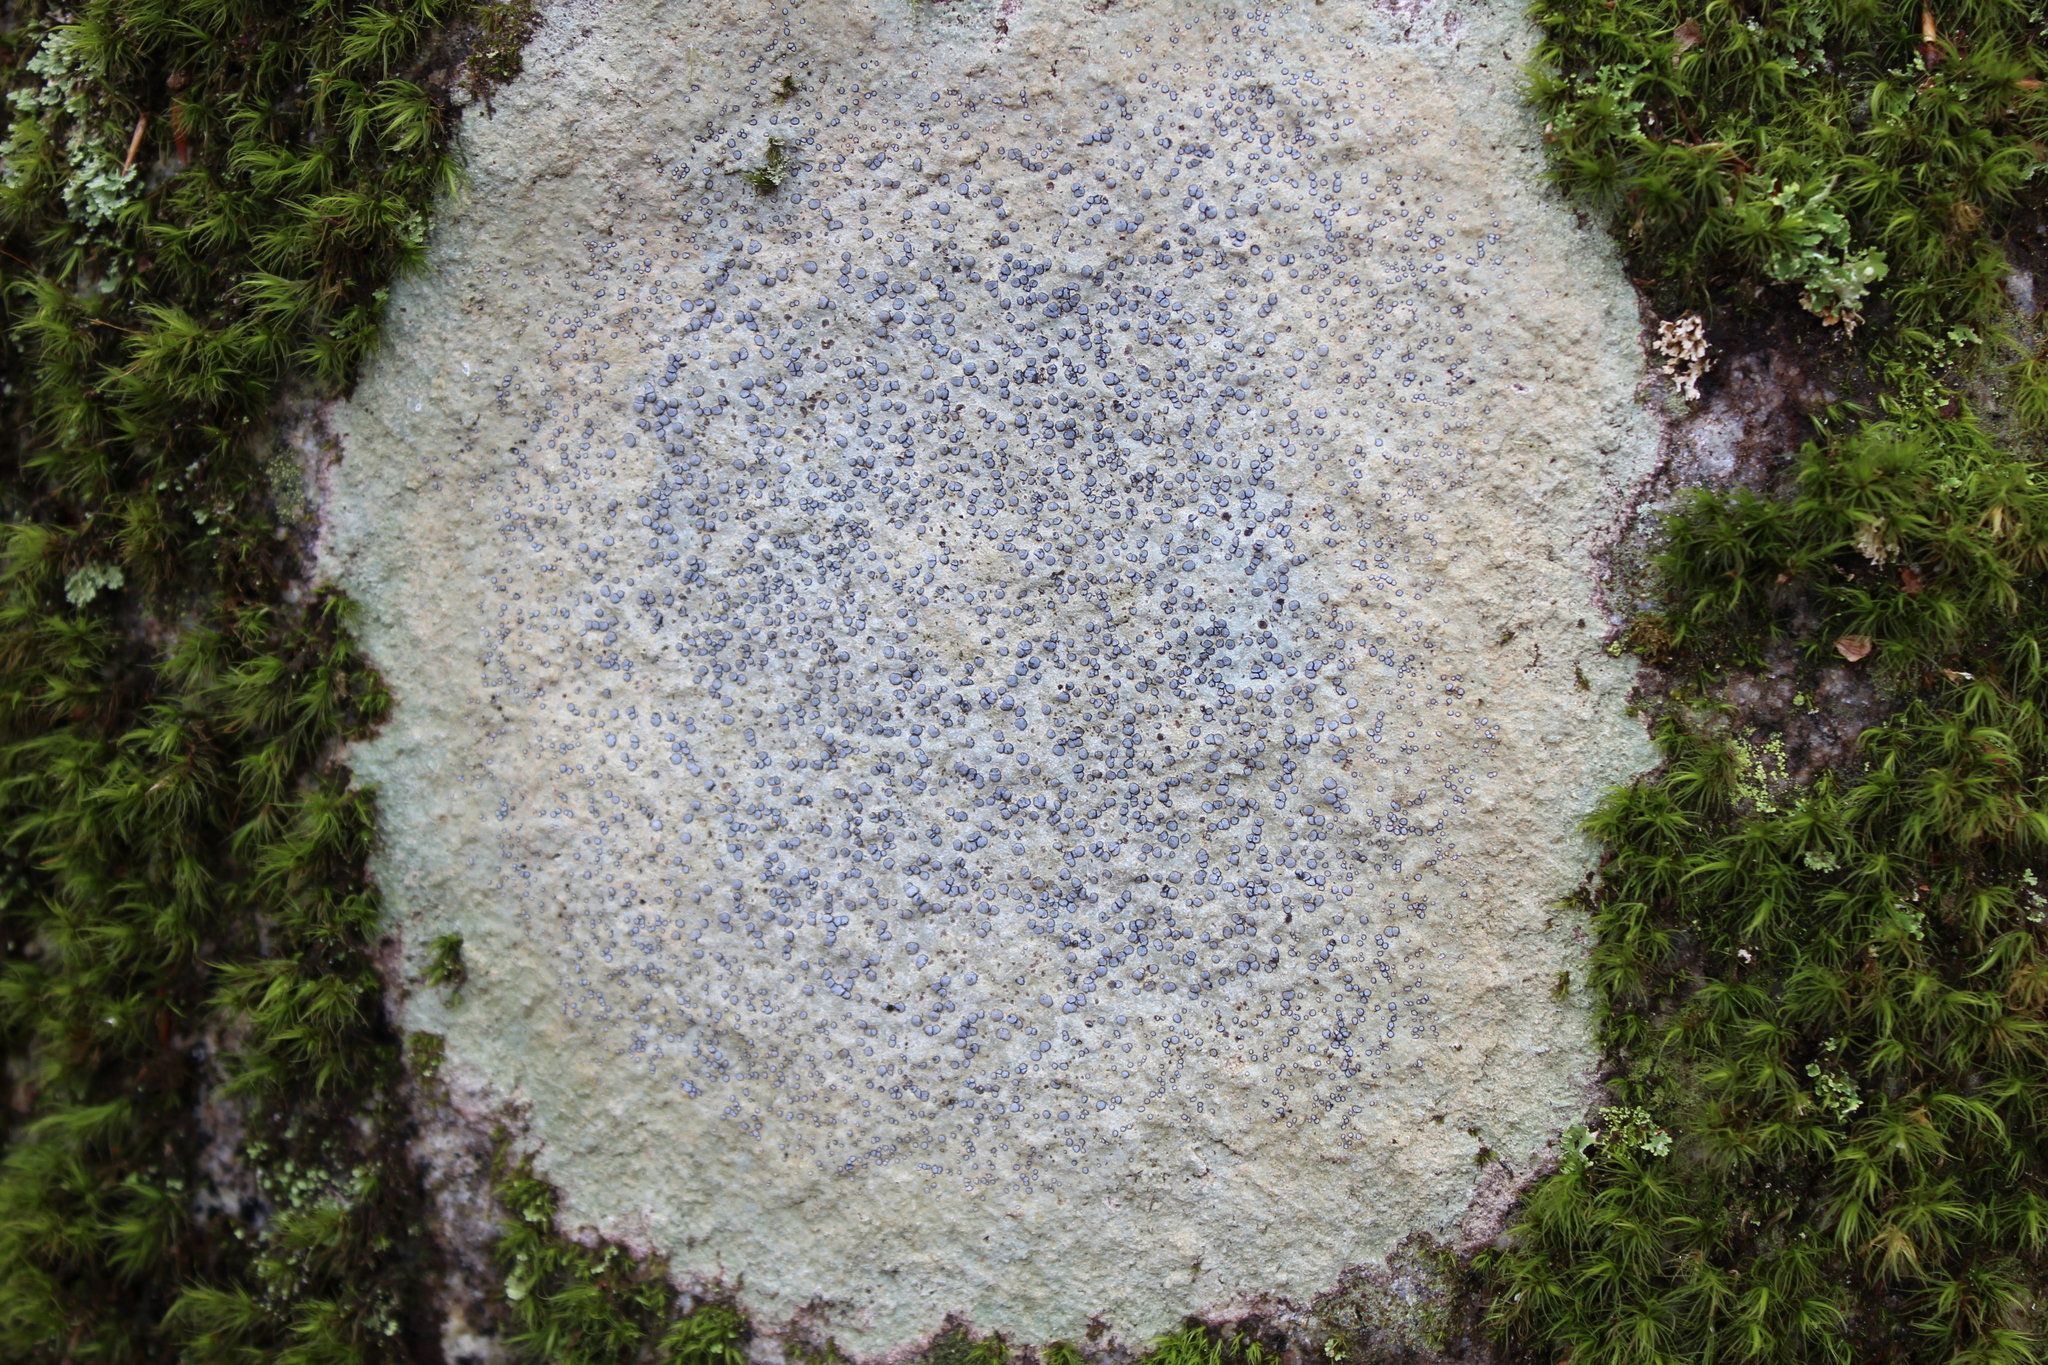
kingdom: Fungi
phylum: Ascomycota
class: Lecanoromycetes
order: Lecideales
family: Lecideaceae
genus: Porpidia
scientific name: Porpidia albocaerulescens
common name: Smokey-eyed boulder lichen
